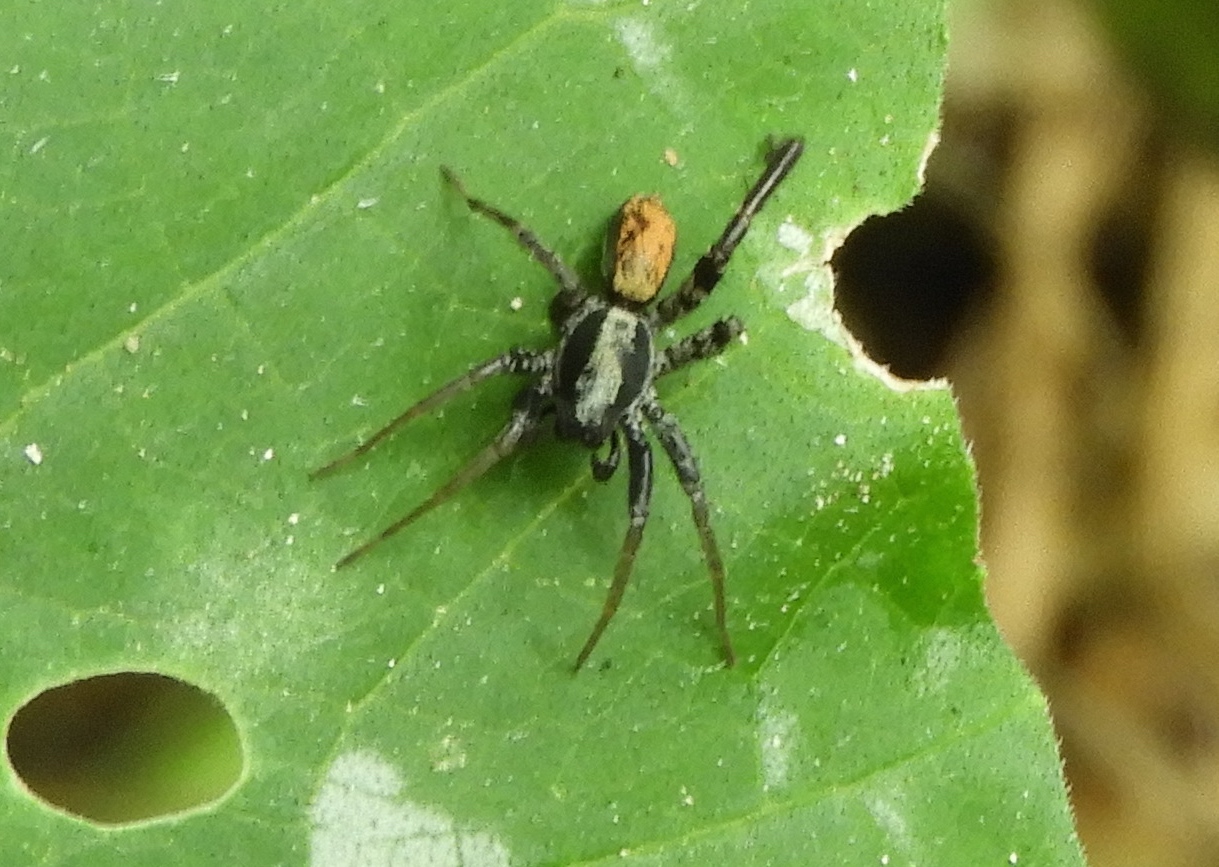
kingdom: Animalia
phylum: Arthropoda
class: Arachnida
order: Araneae
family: Corinnidae
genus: Castianeira
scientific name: Castianeira dorsata
